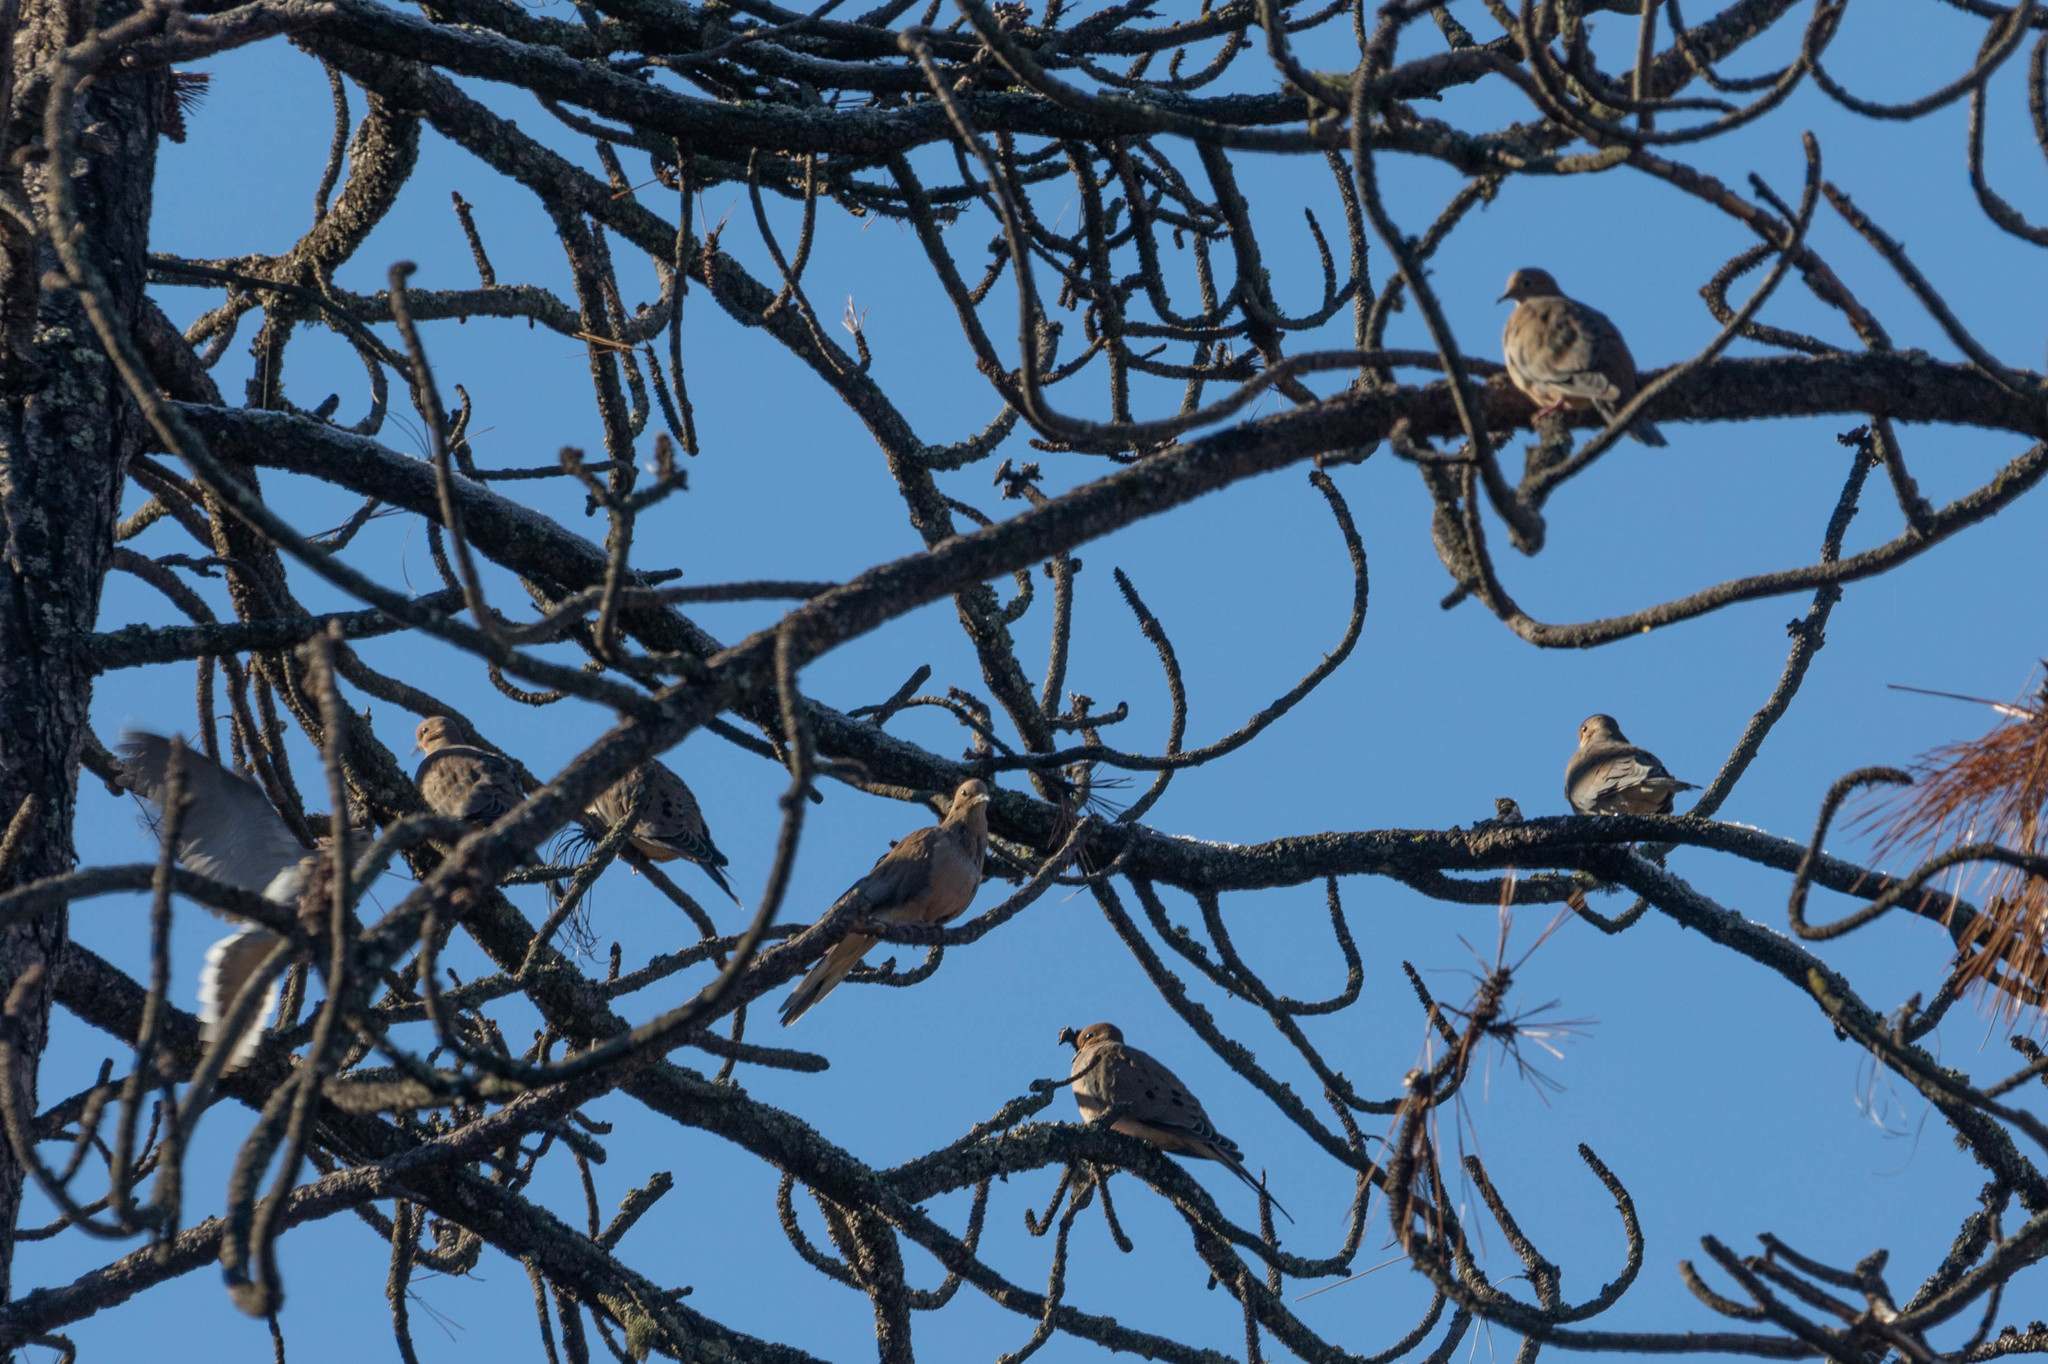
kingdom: Animalia
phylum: Chordata
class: Aves
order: Columbiformes
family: Columbidae
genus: Zenaida
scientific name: Zenaida macroura
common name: Mourning dove
